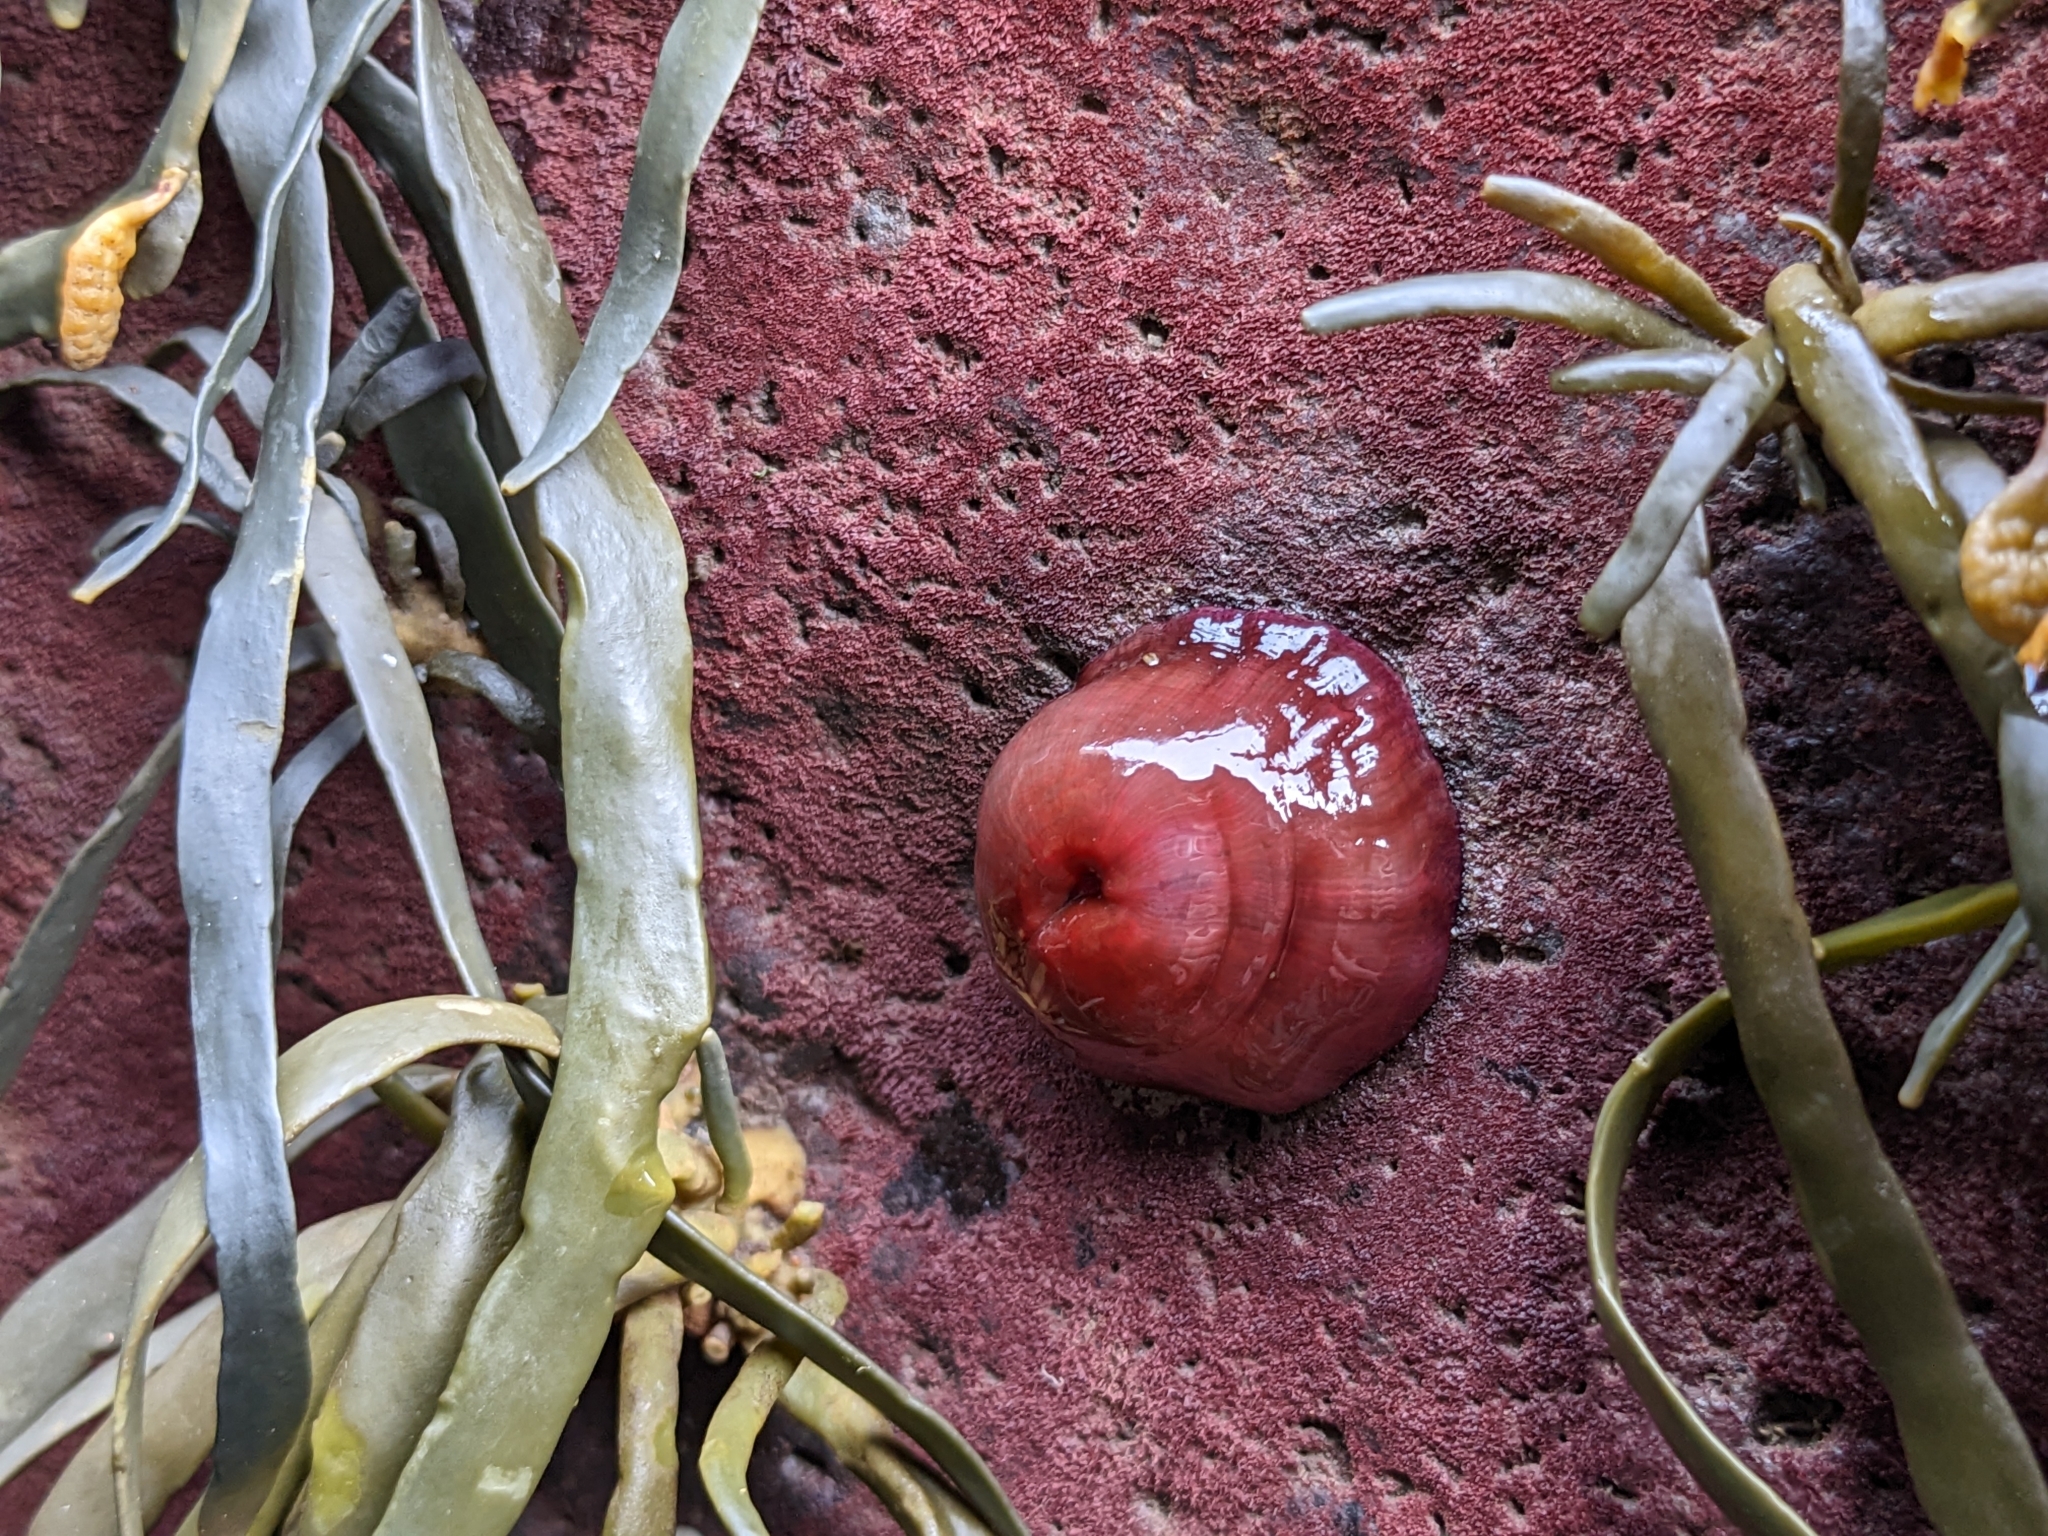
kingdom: Animalia
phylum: Cnidaria
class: Anthozoa
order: Actiniaria
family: Actiniidae
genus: Actinia
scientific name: Actinia equina
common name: Beadlet anemone
